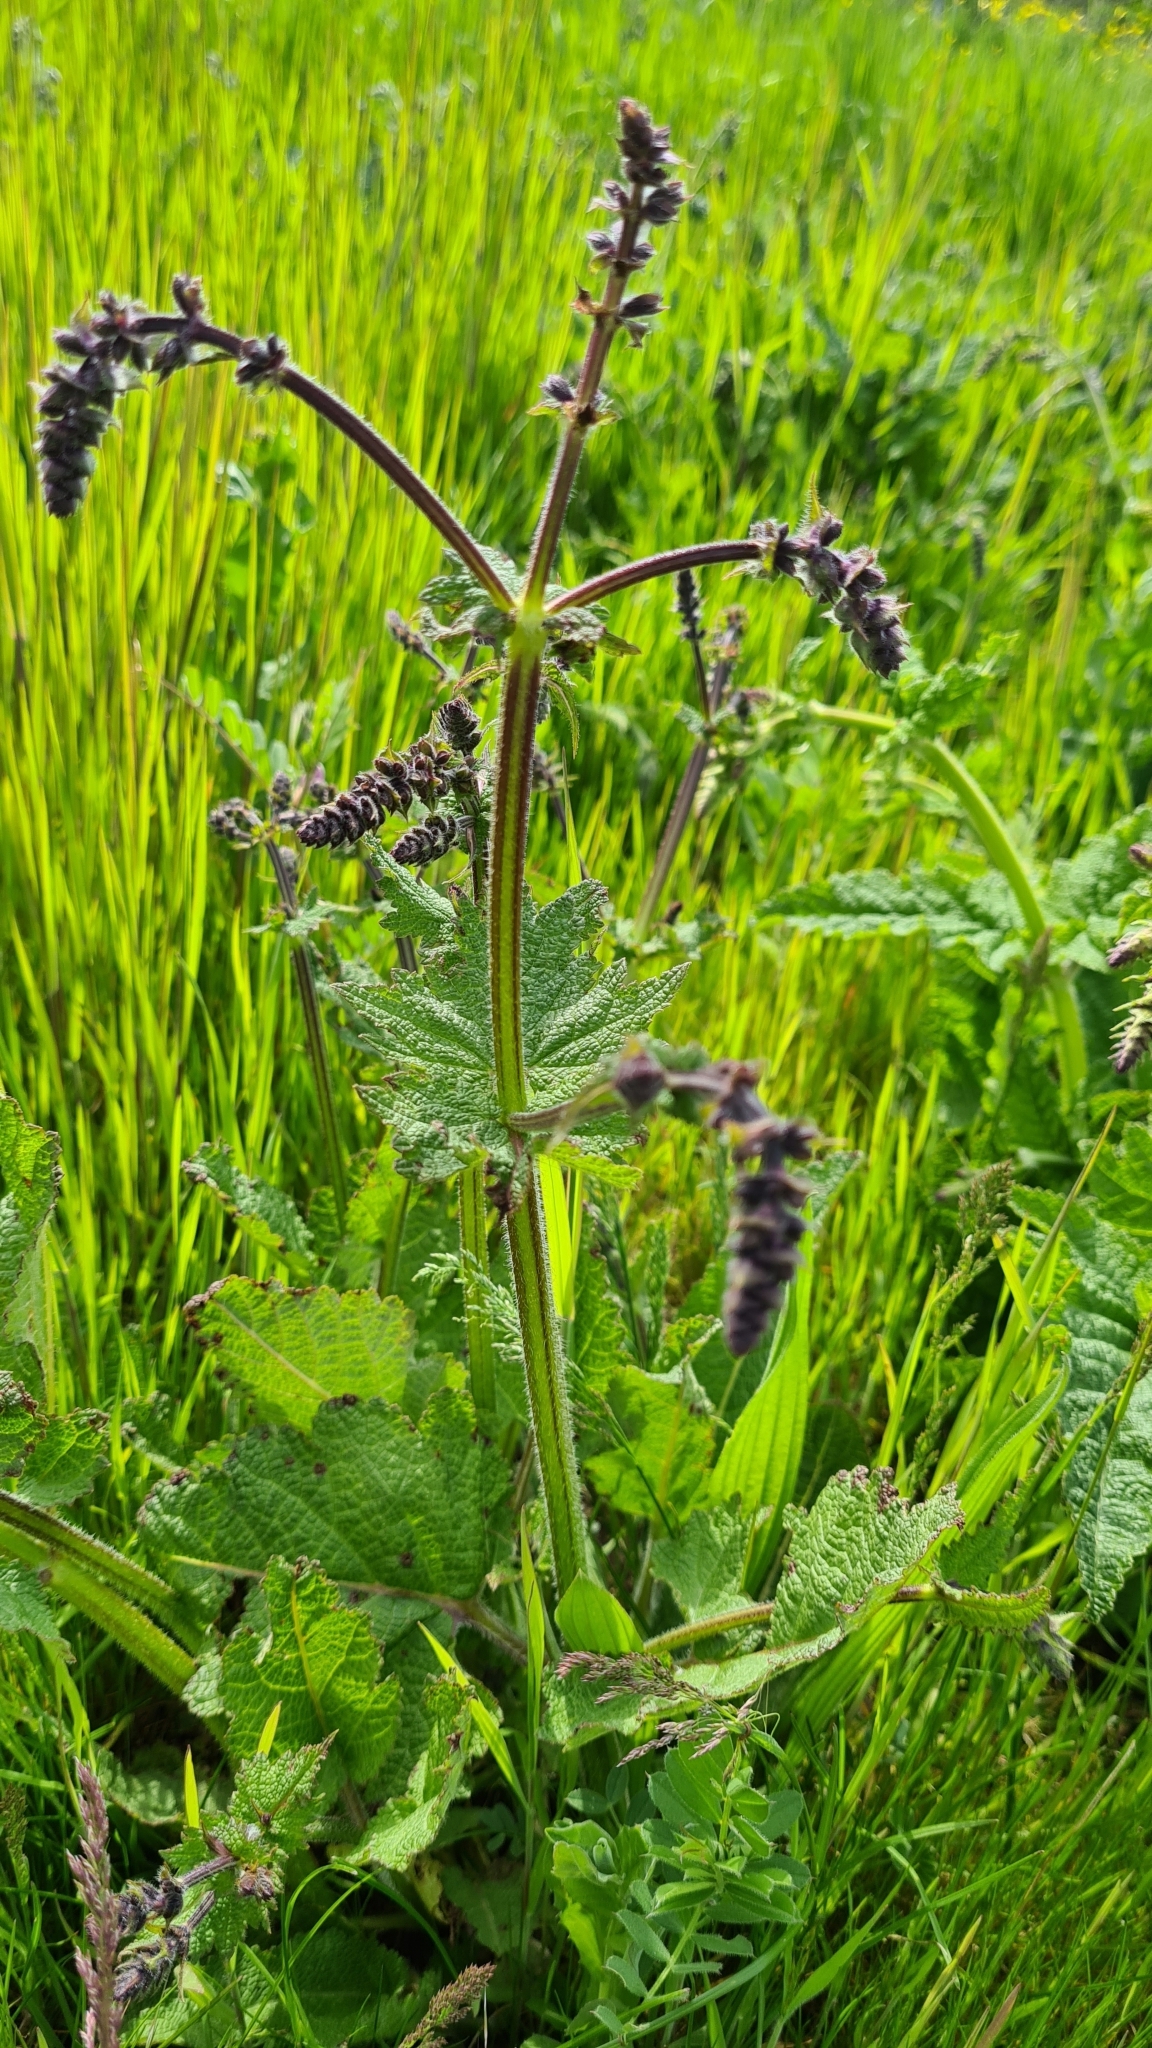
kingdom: Plantae
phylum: Tracheophyta
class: Magnoliopsida
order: Lamiales
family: Lamiaceae
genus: Salvia
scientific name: Salvia pratensis
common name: Meadow sage
